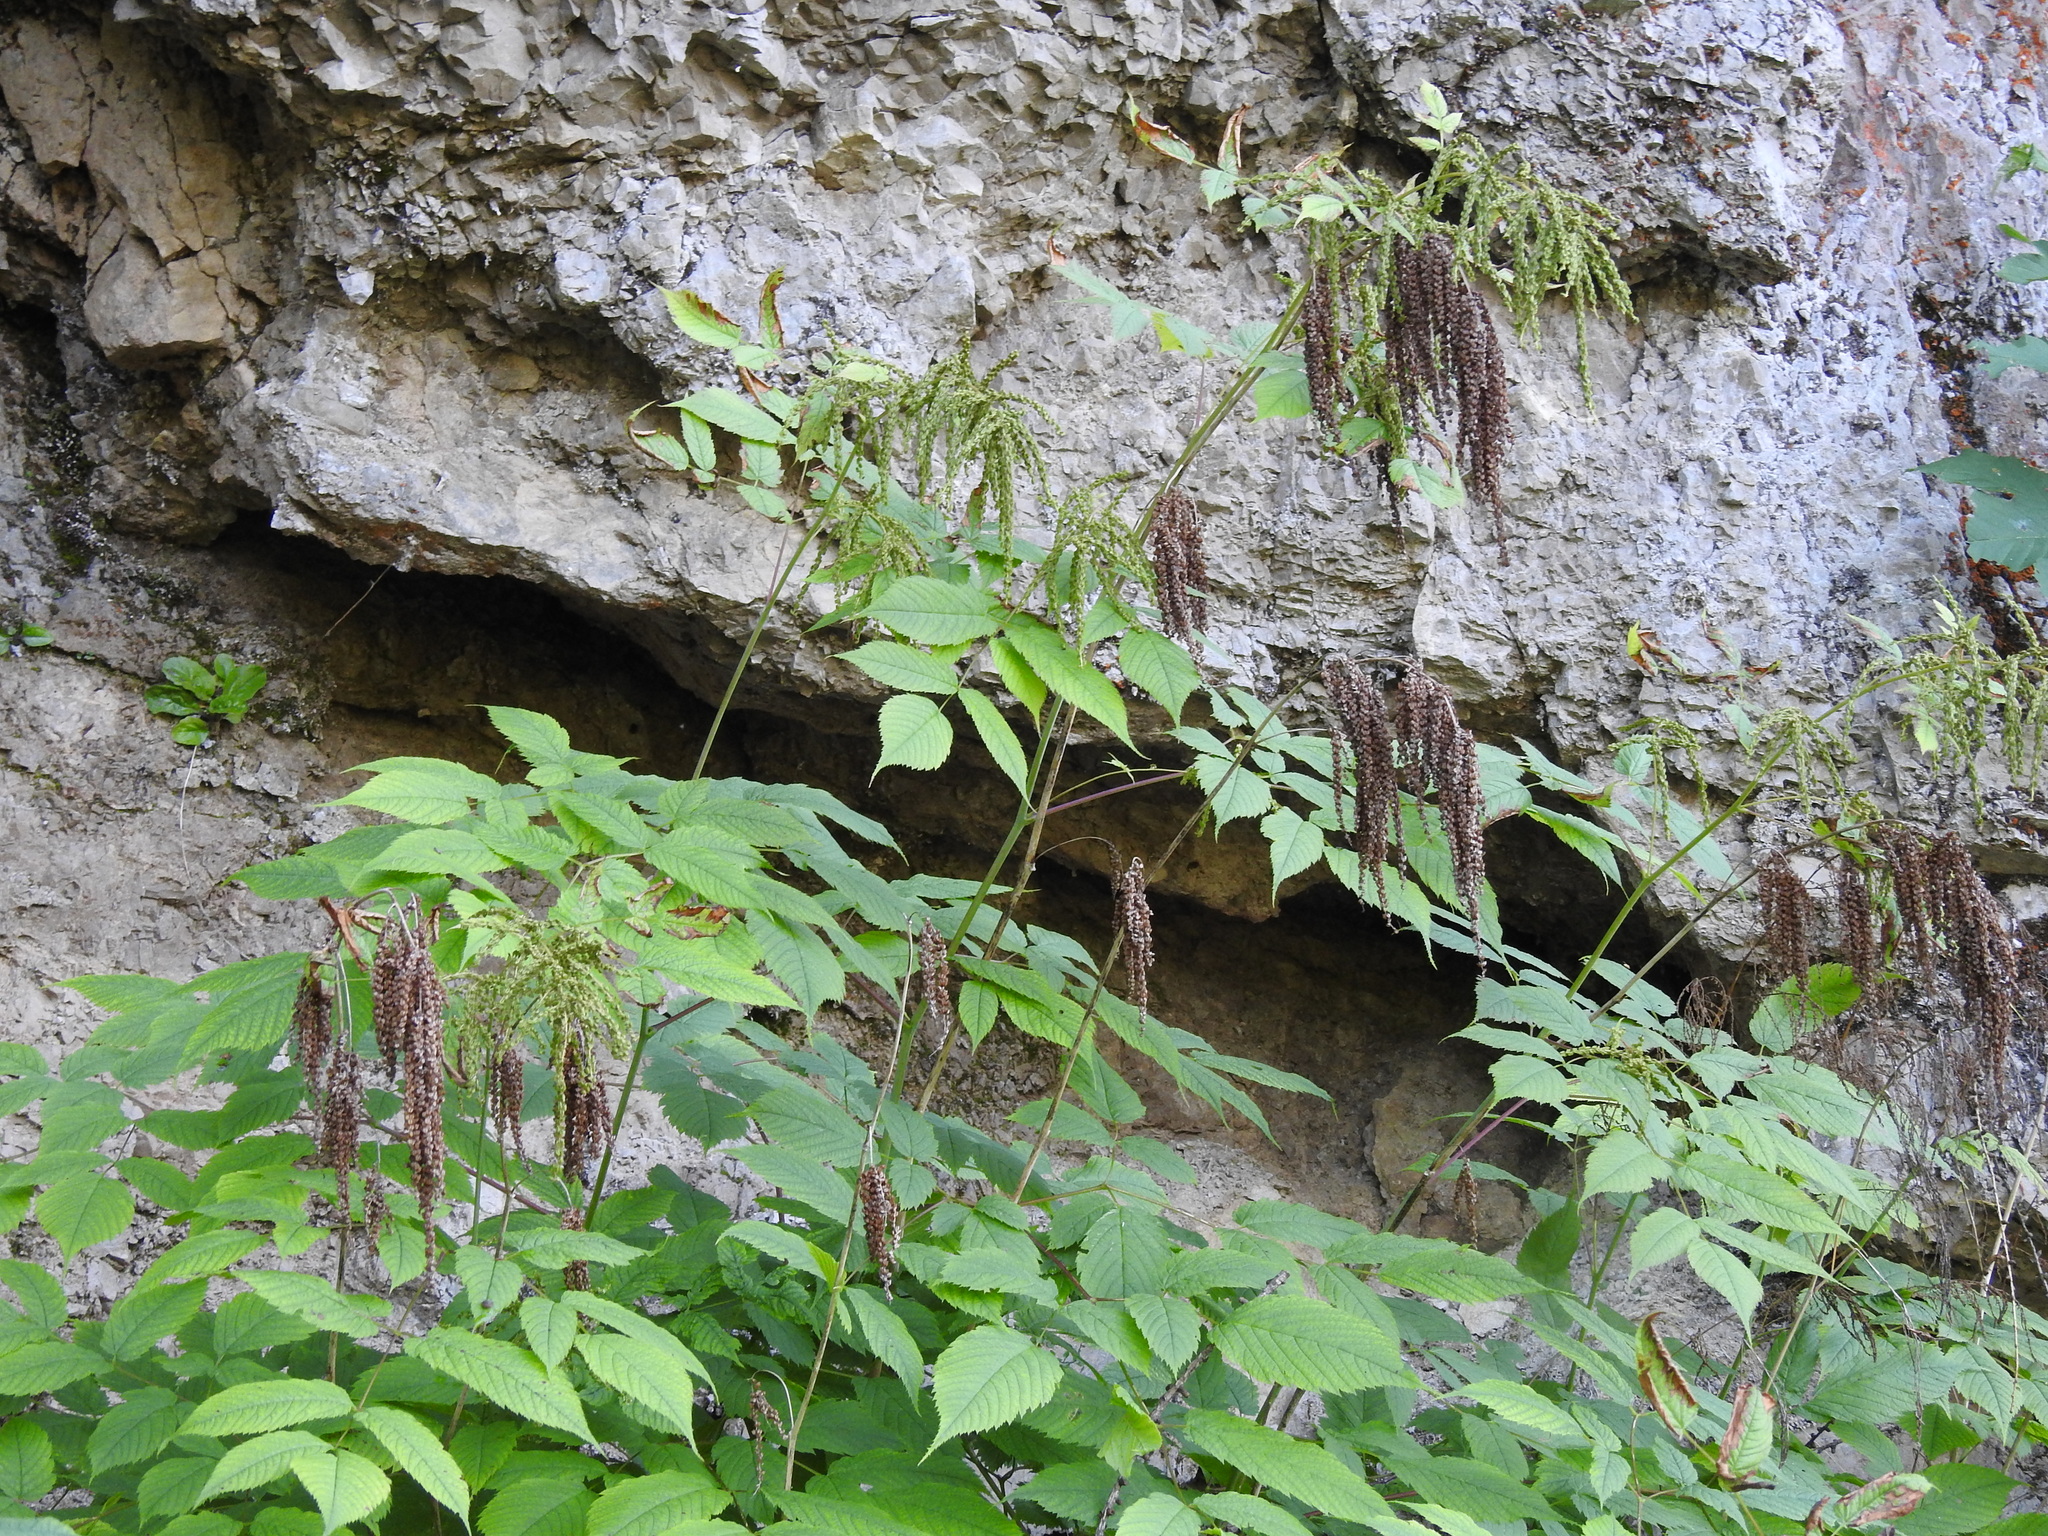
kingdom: Plantae
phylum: Tracheophyta
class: Magnoliopsida
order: Rosales
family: Rosaceae
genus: Aruncus
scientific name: Aruncus dioicus
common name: Buck's-beard
